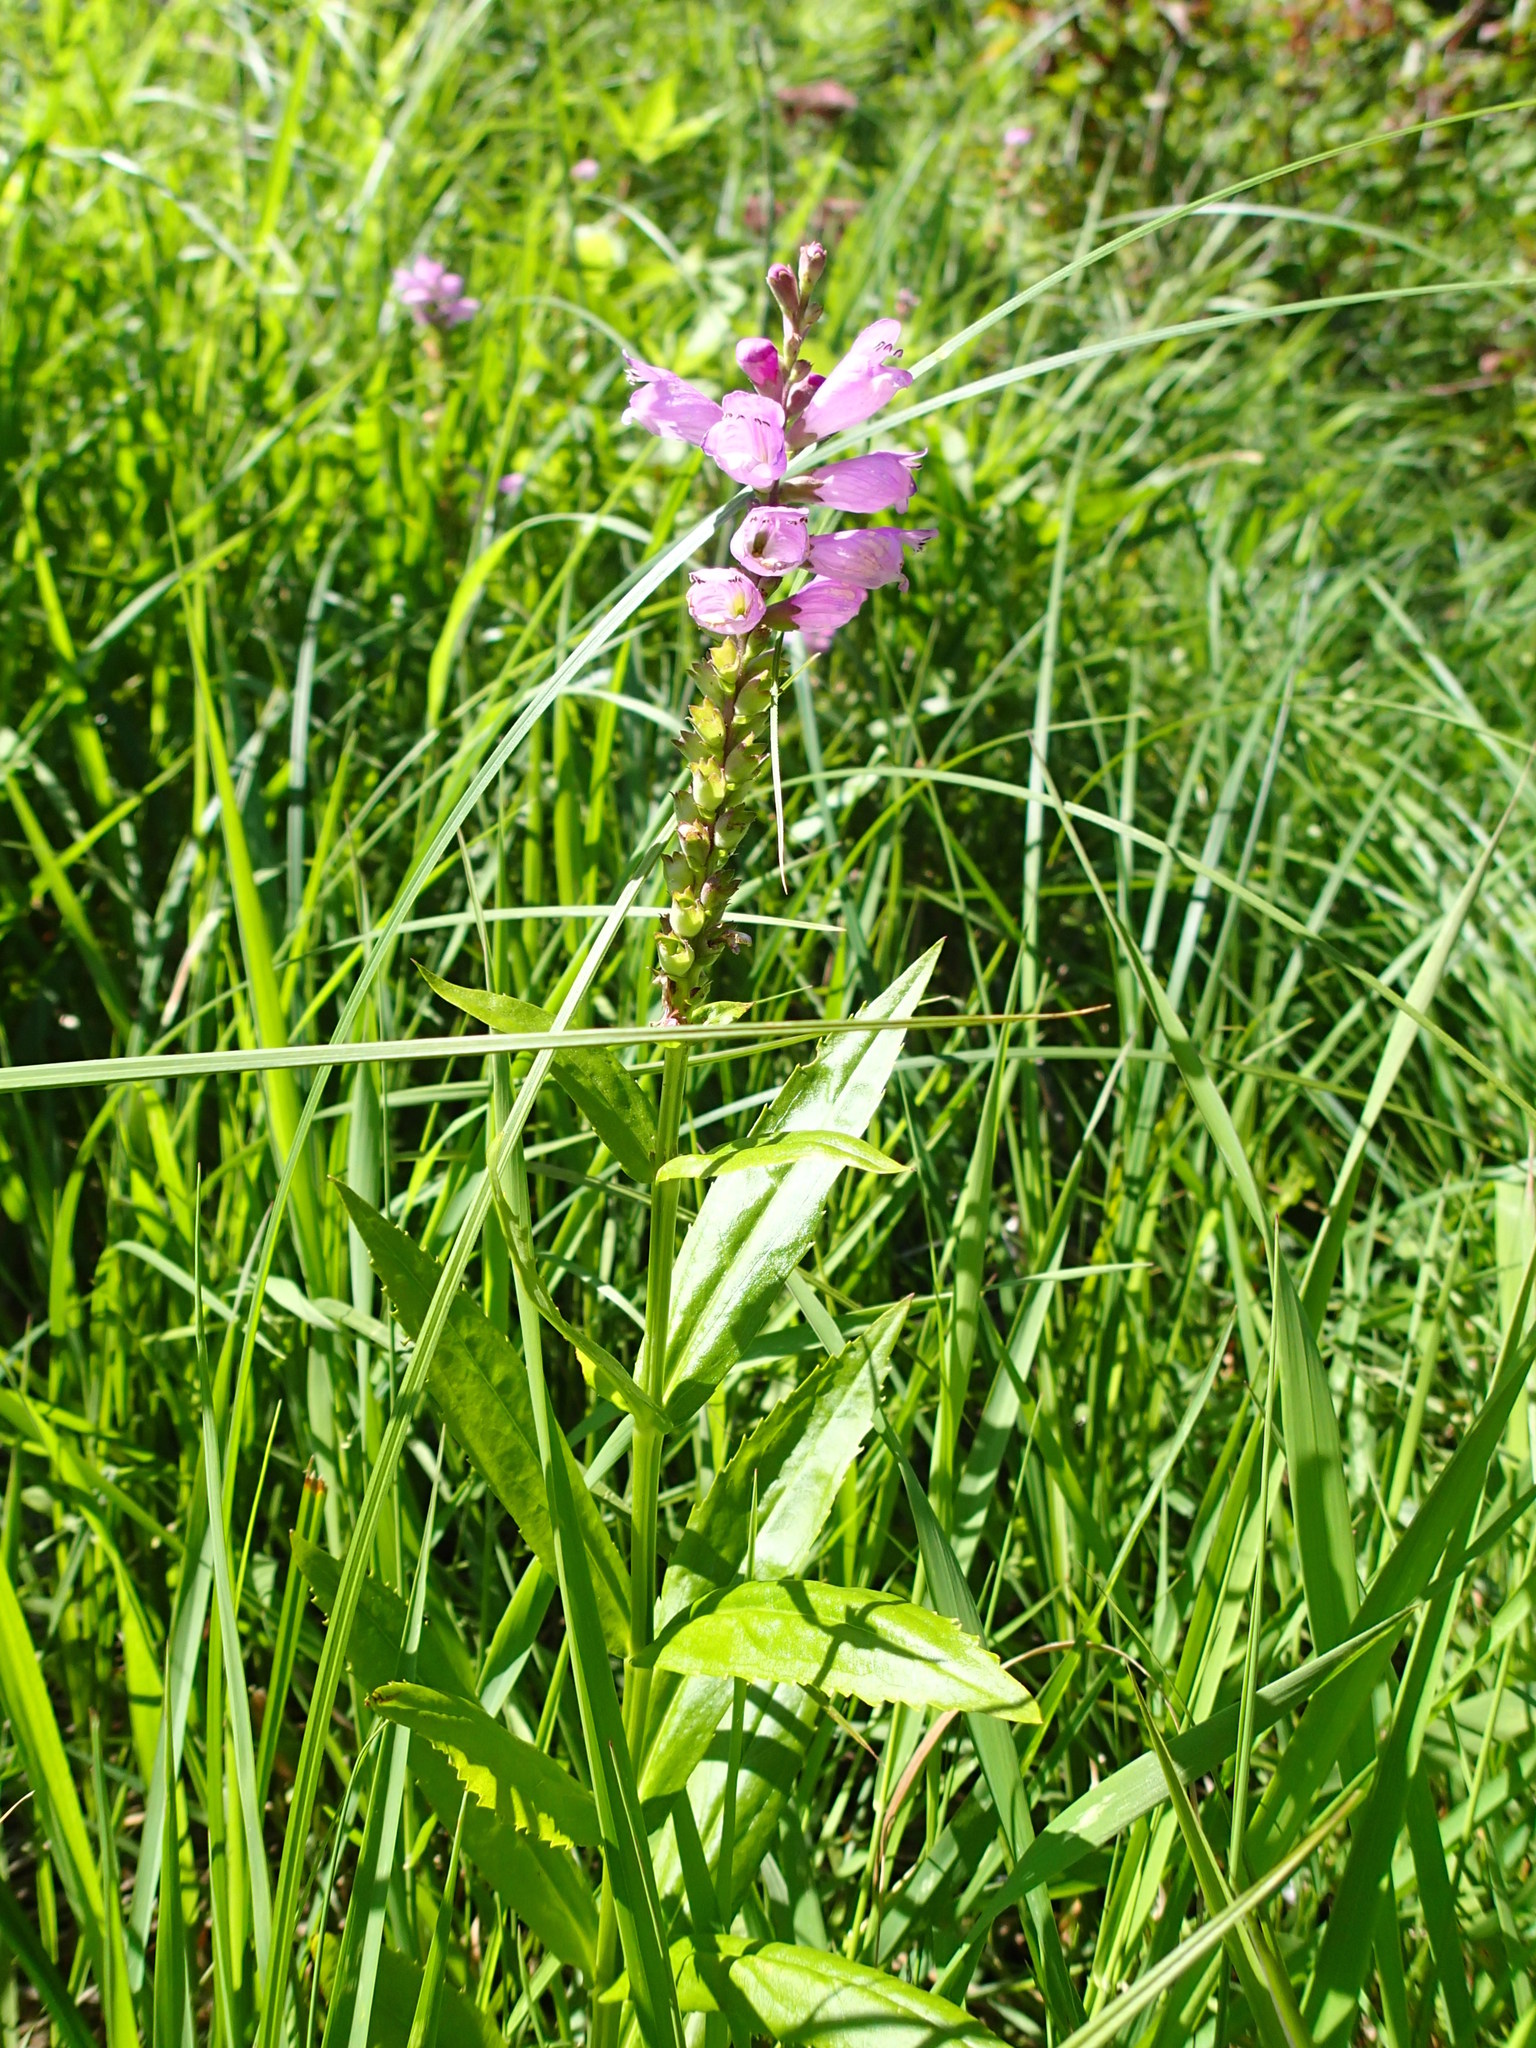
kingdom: Plantae
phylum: Tracheophyta
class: Magnoliopsida
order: Lamiales
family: Lamiaceae
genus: Physostegia
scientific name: Physostegia virginiana
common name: Obedient-plant
